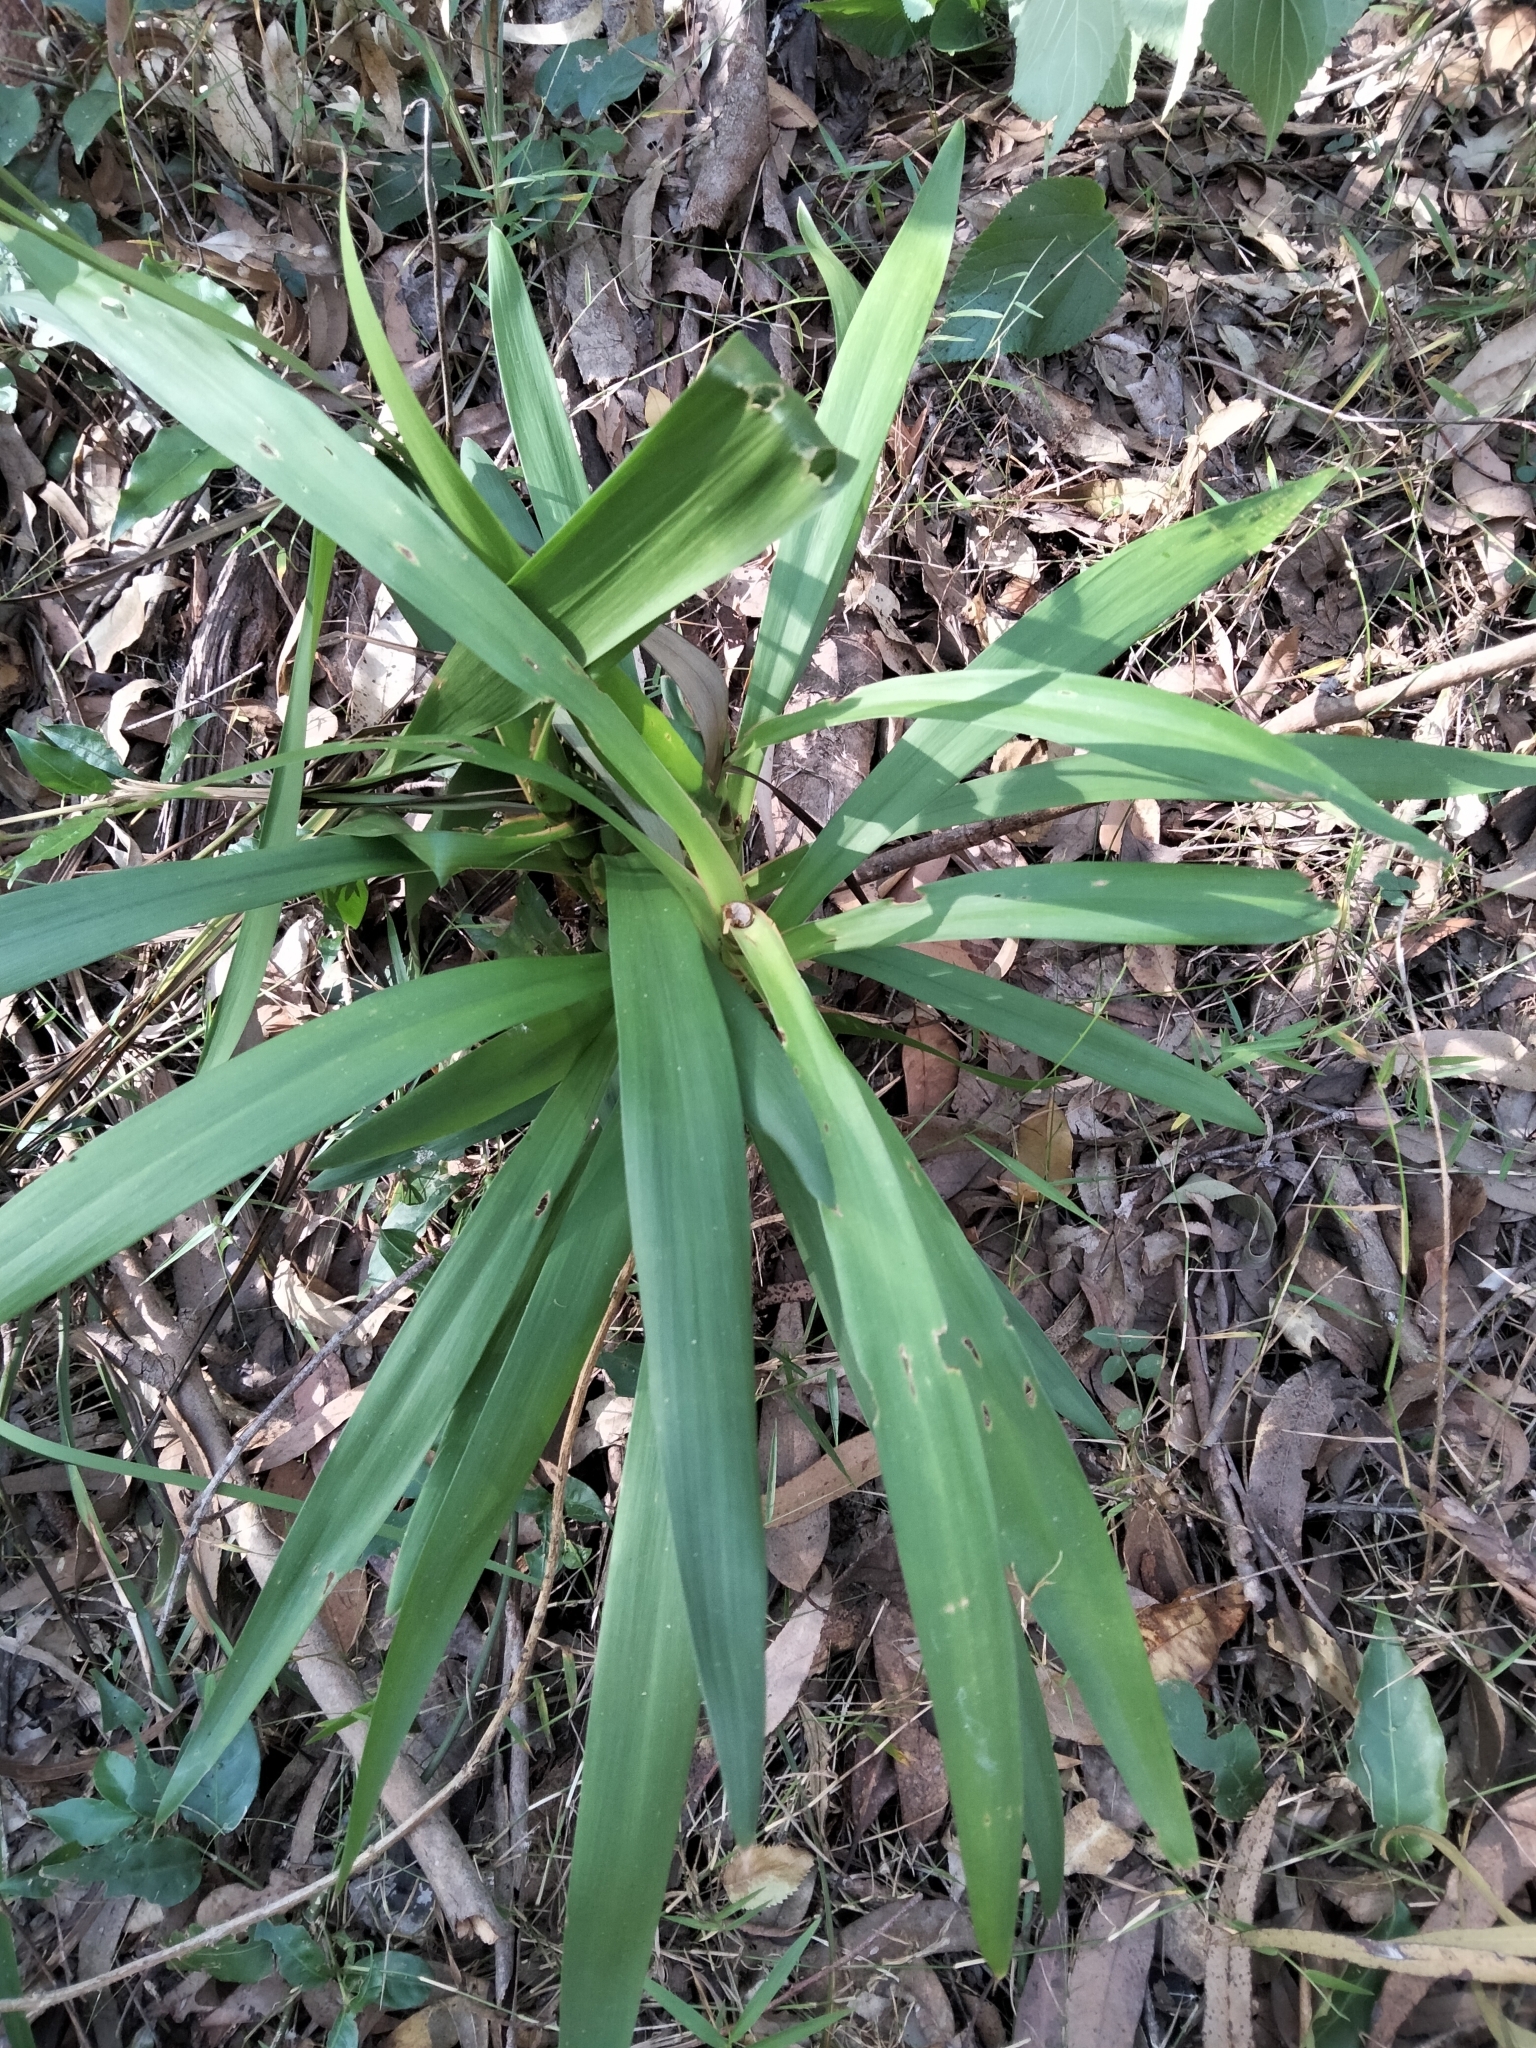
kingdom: Plantae
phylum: Tracheophyta
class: Liliopsida
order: Asparagales
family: Asparagaceae
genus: Cordyline
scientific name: Cordyline stricta
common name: Narrow-leaf palm-lily
